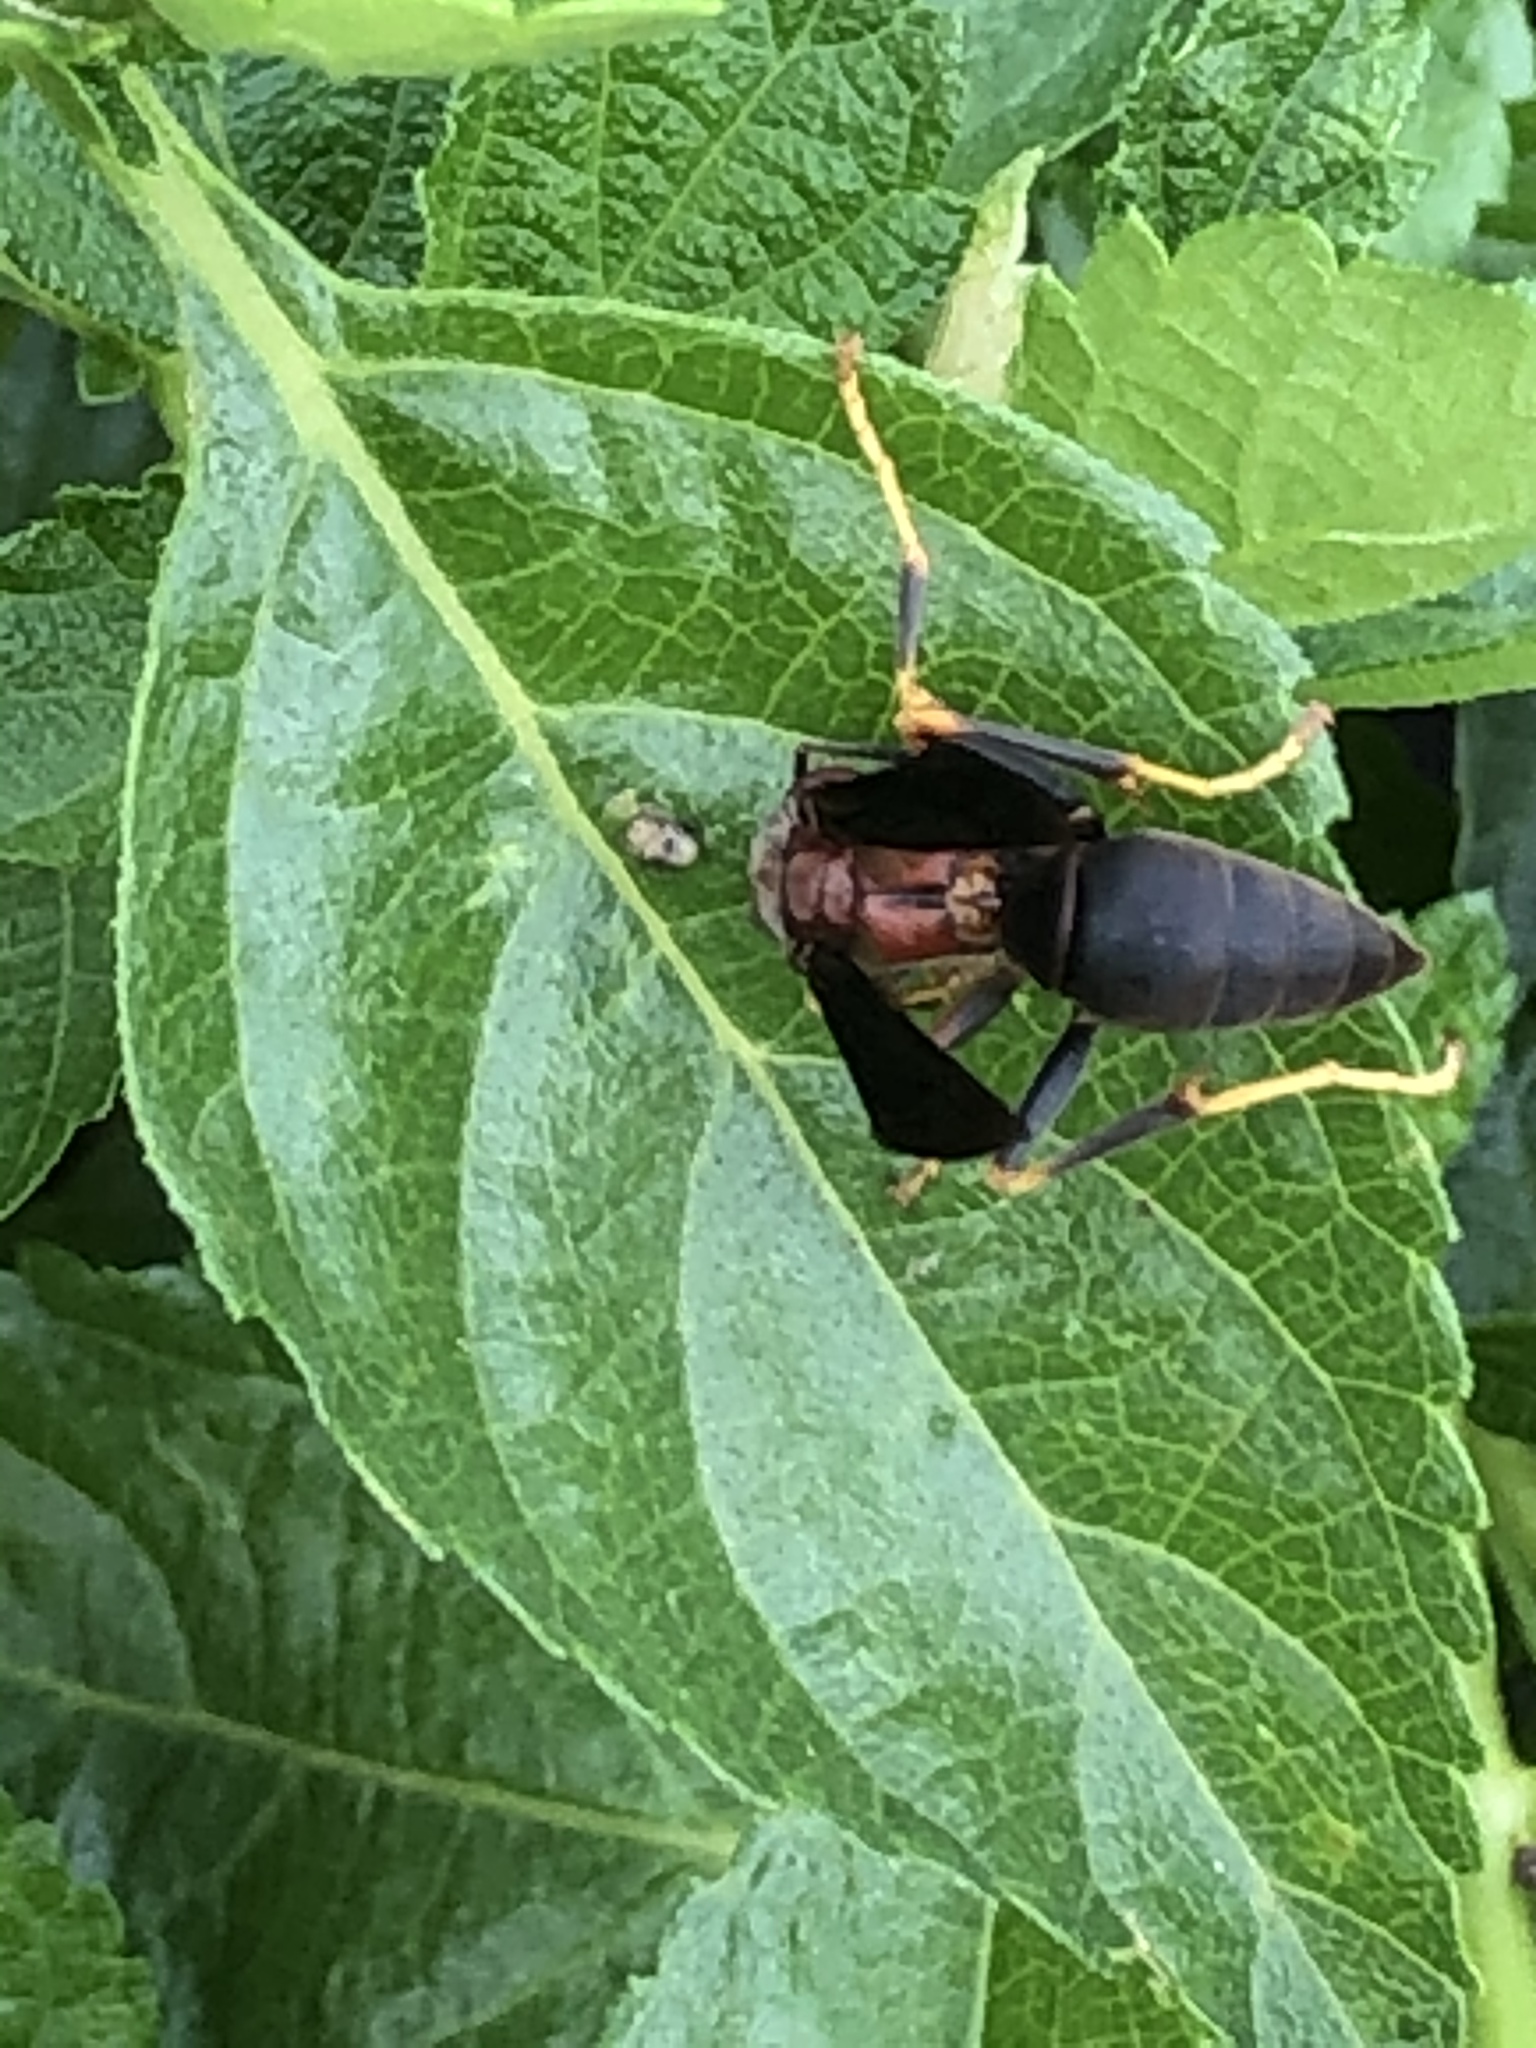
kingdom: Animalia
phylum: Arthropoda
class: Insecta
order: Hymenoptera
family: Eumenidae
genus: Polistes
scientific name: Polistes metricus
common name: Metric paper wasp
